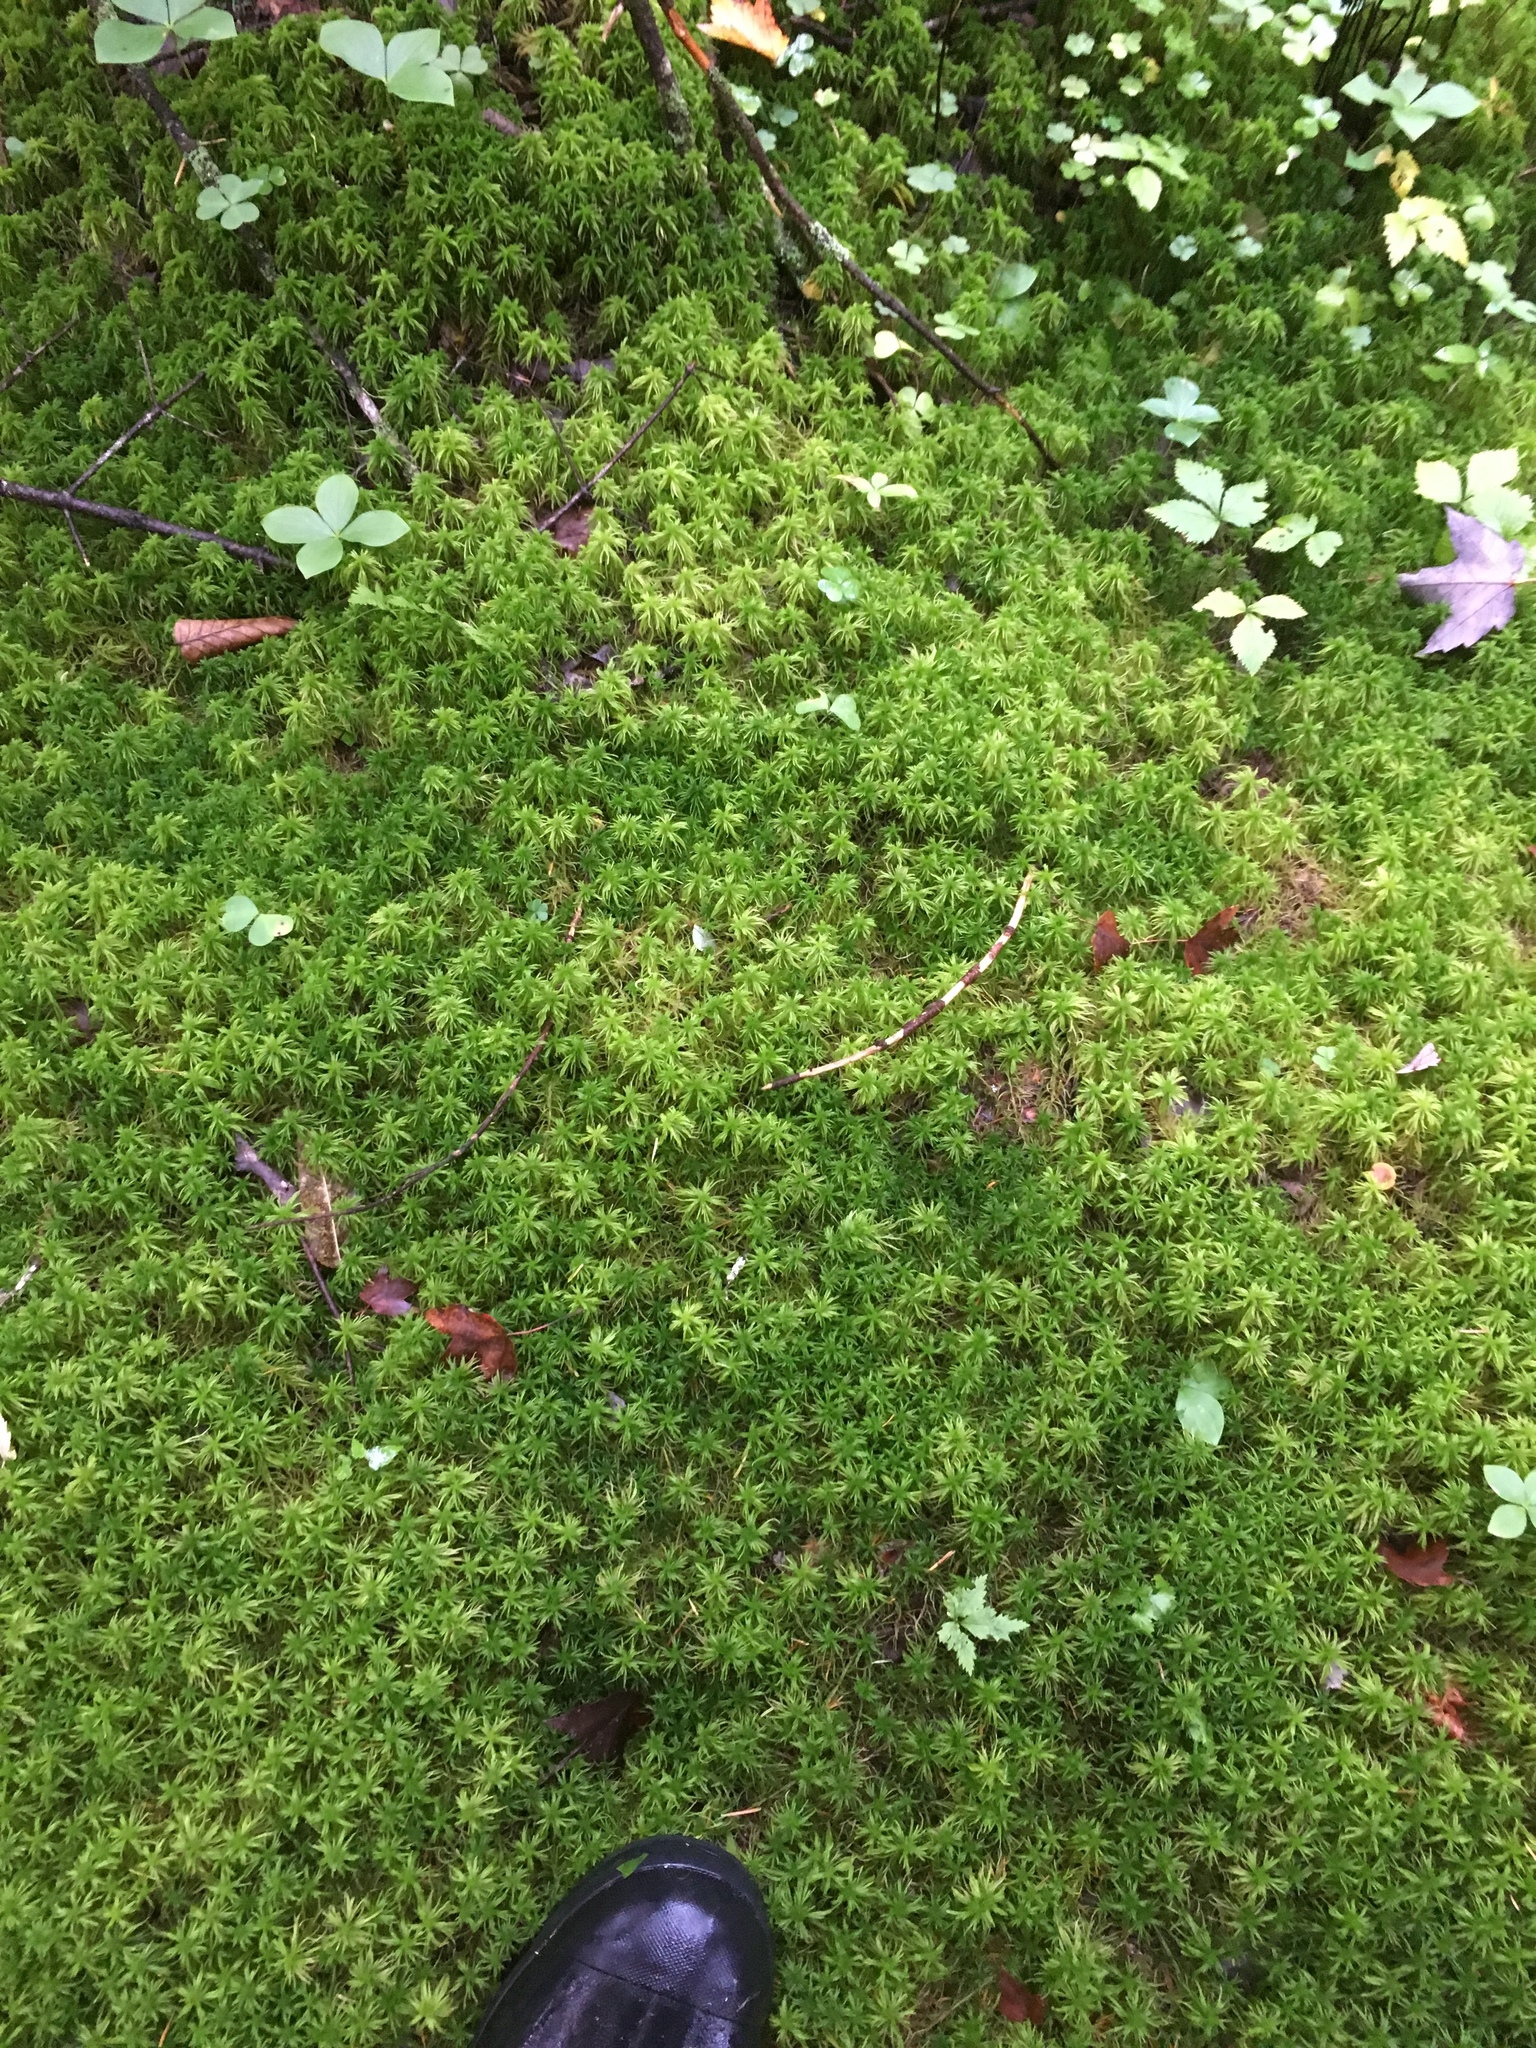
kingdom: Plantae
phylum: Bryophyta
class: Sphagnopsida
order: Sphagnales
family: Sphagnaceae
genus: Sphagnum
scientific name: Sphagnum girgensohnii
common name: Girgensohn's peat moss
